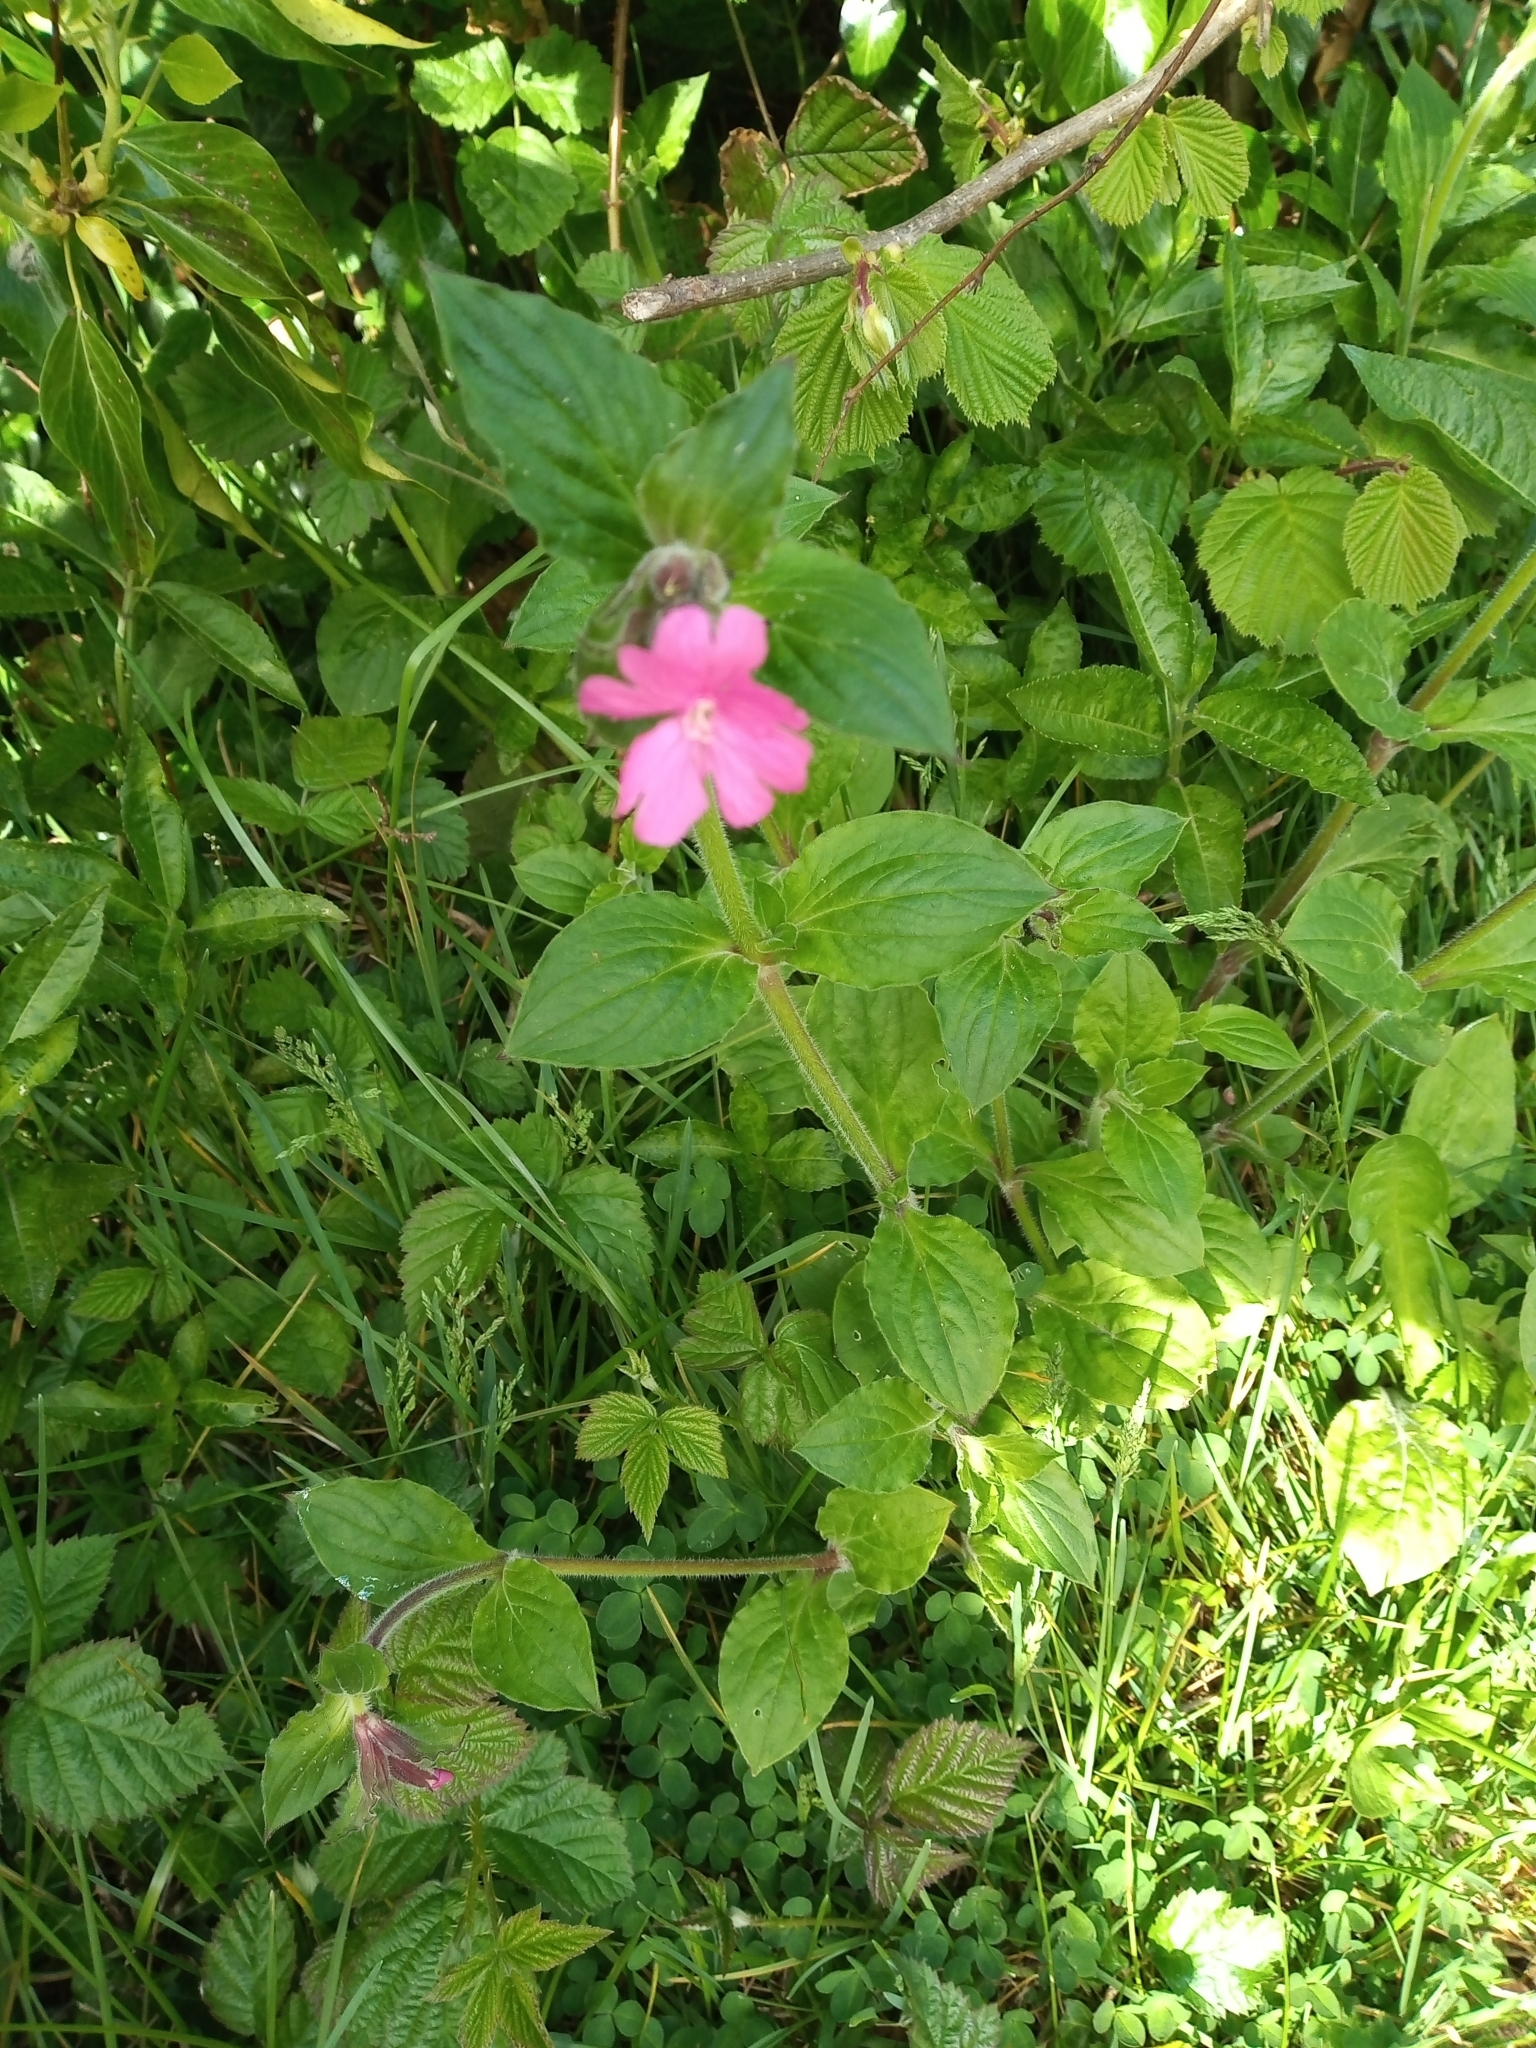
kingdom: Plantae
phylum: Tracheophyta
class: Magnoliopsida
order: Caryophyllales
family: Caryophyllaceae
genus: Silene
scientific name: Silene dioica
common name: Red campion
